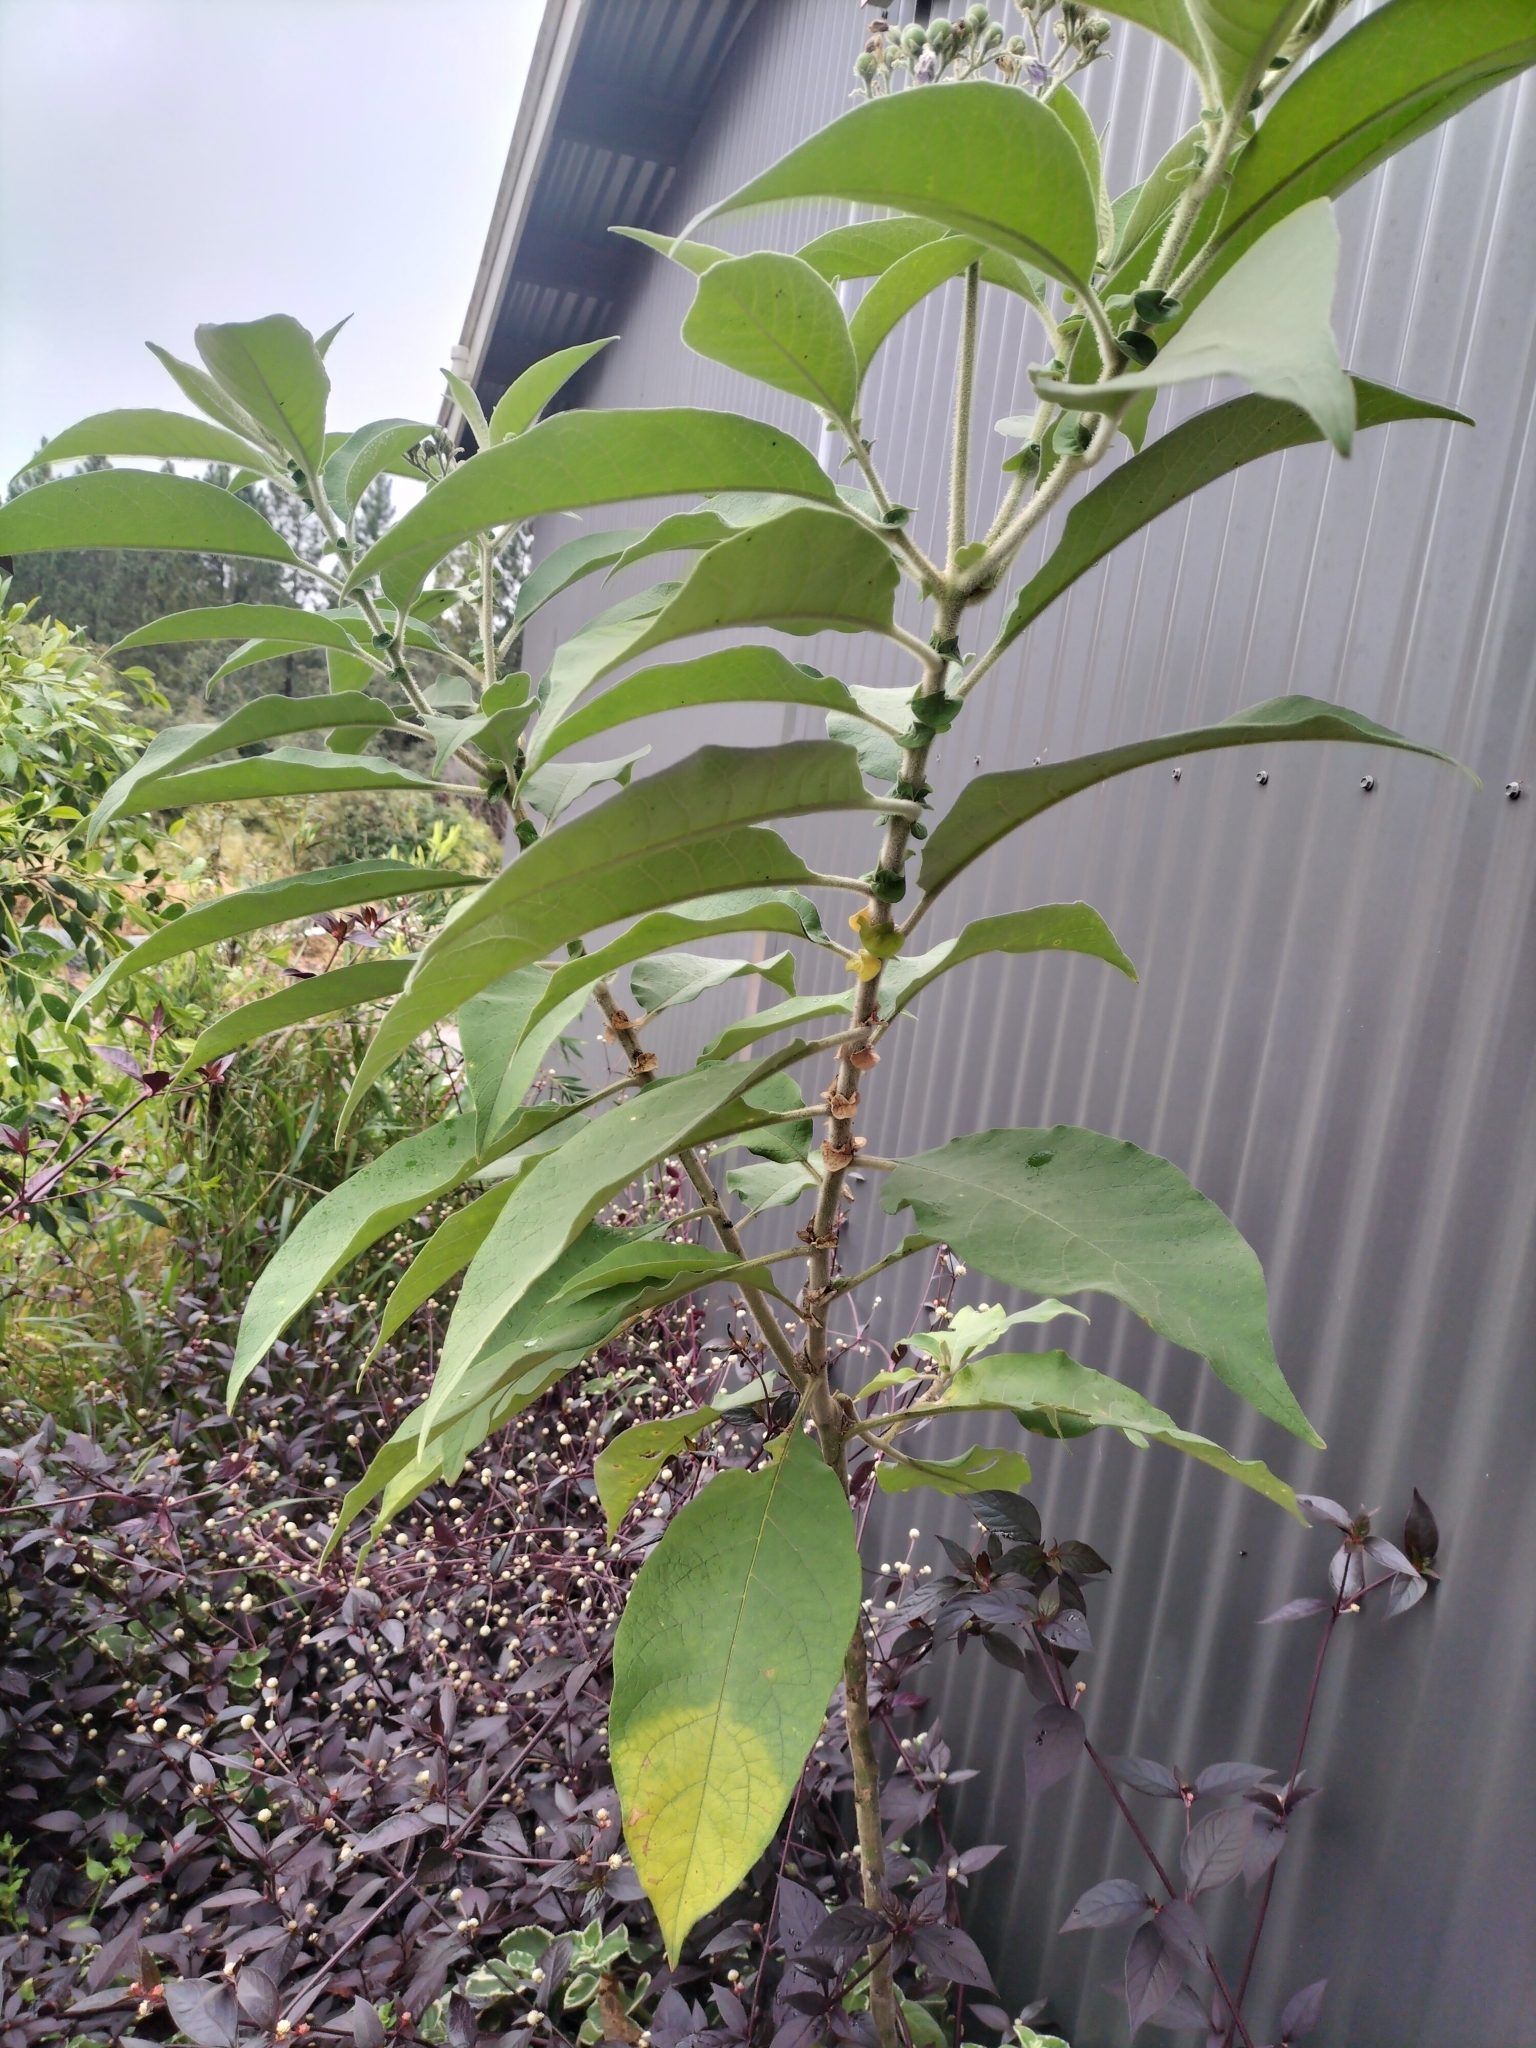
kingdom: Plantae
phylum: Tracheophyta
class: Magnoliopsida
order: Solanales
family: Solanaceae
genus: Solanum
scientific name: Solanum mauritianum
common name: Earleaf nightshade
